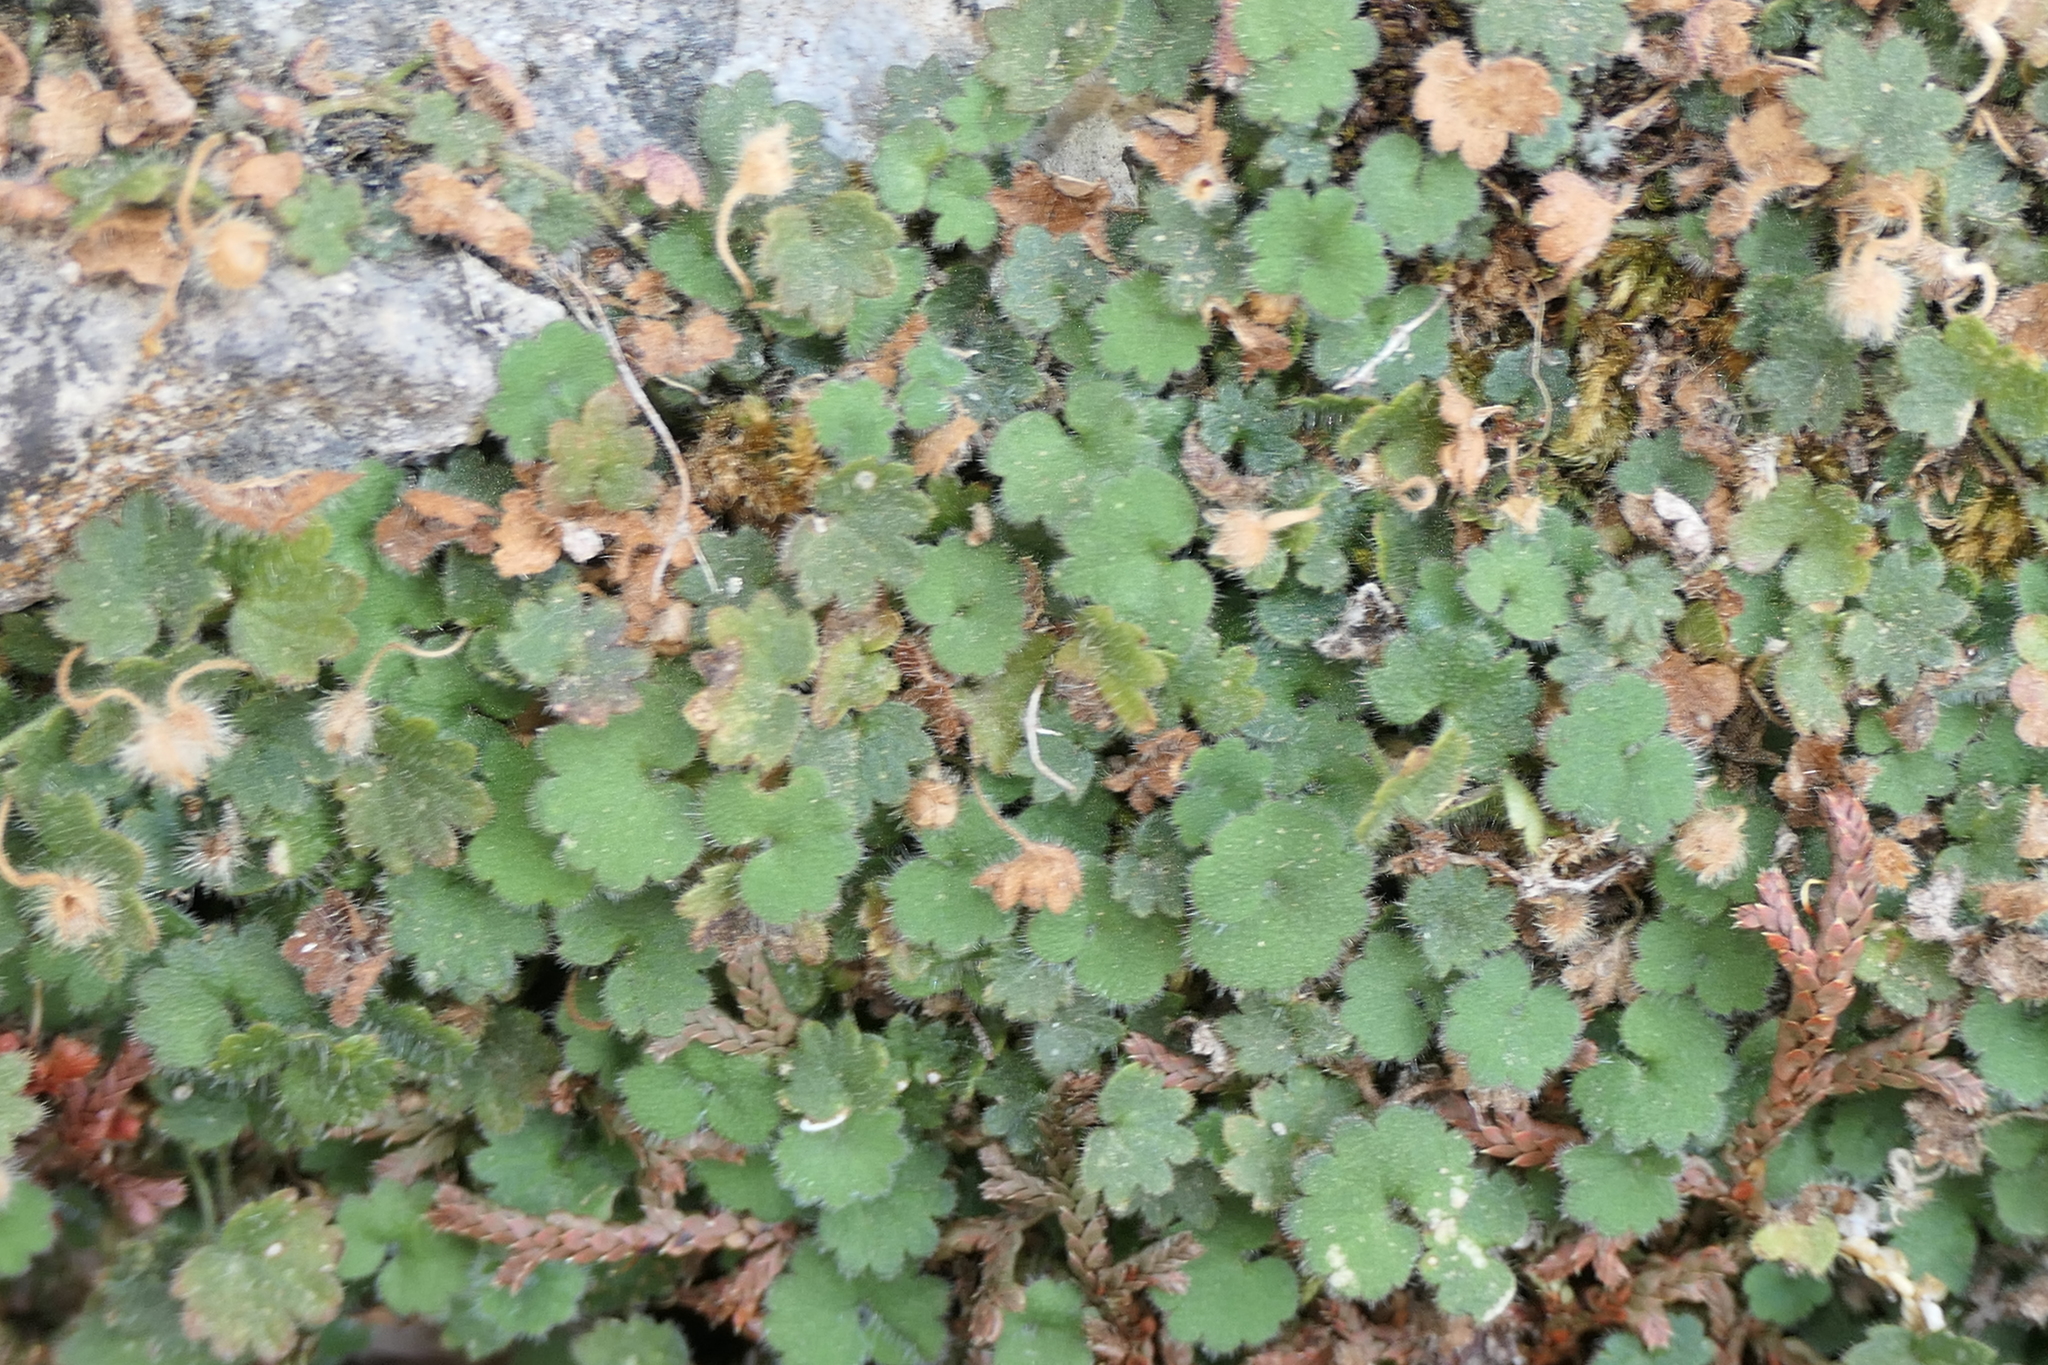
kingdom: Plantae
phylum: Tracheophyta
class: Magnoliopsida
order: Lamiales
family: Plantaginaceae
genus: Sibthorpia
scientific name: Sibthorpia africana
